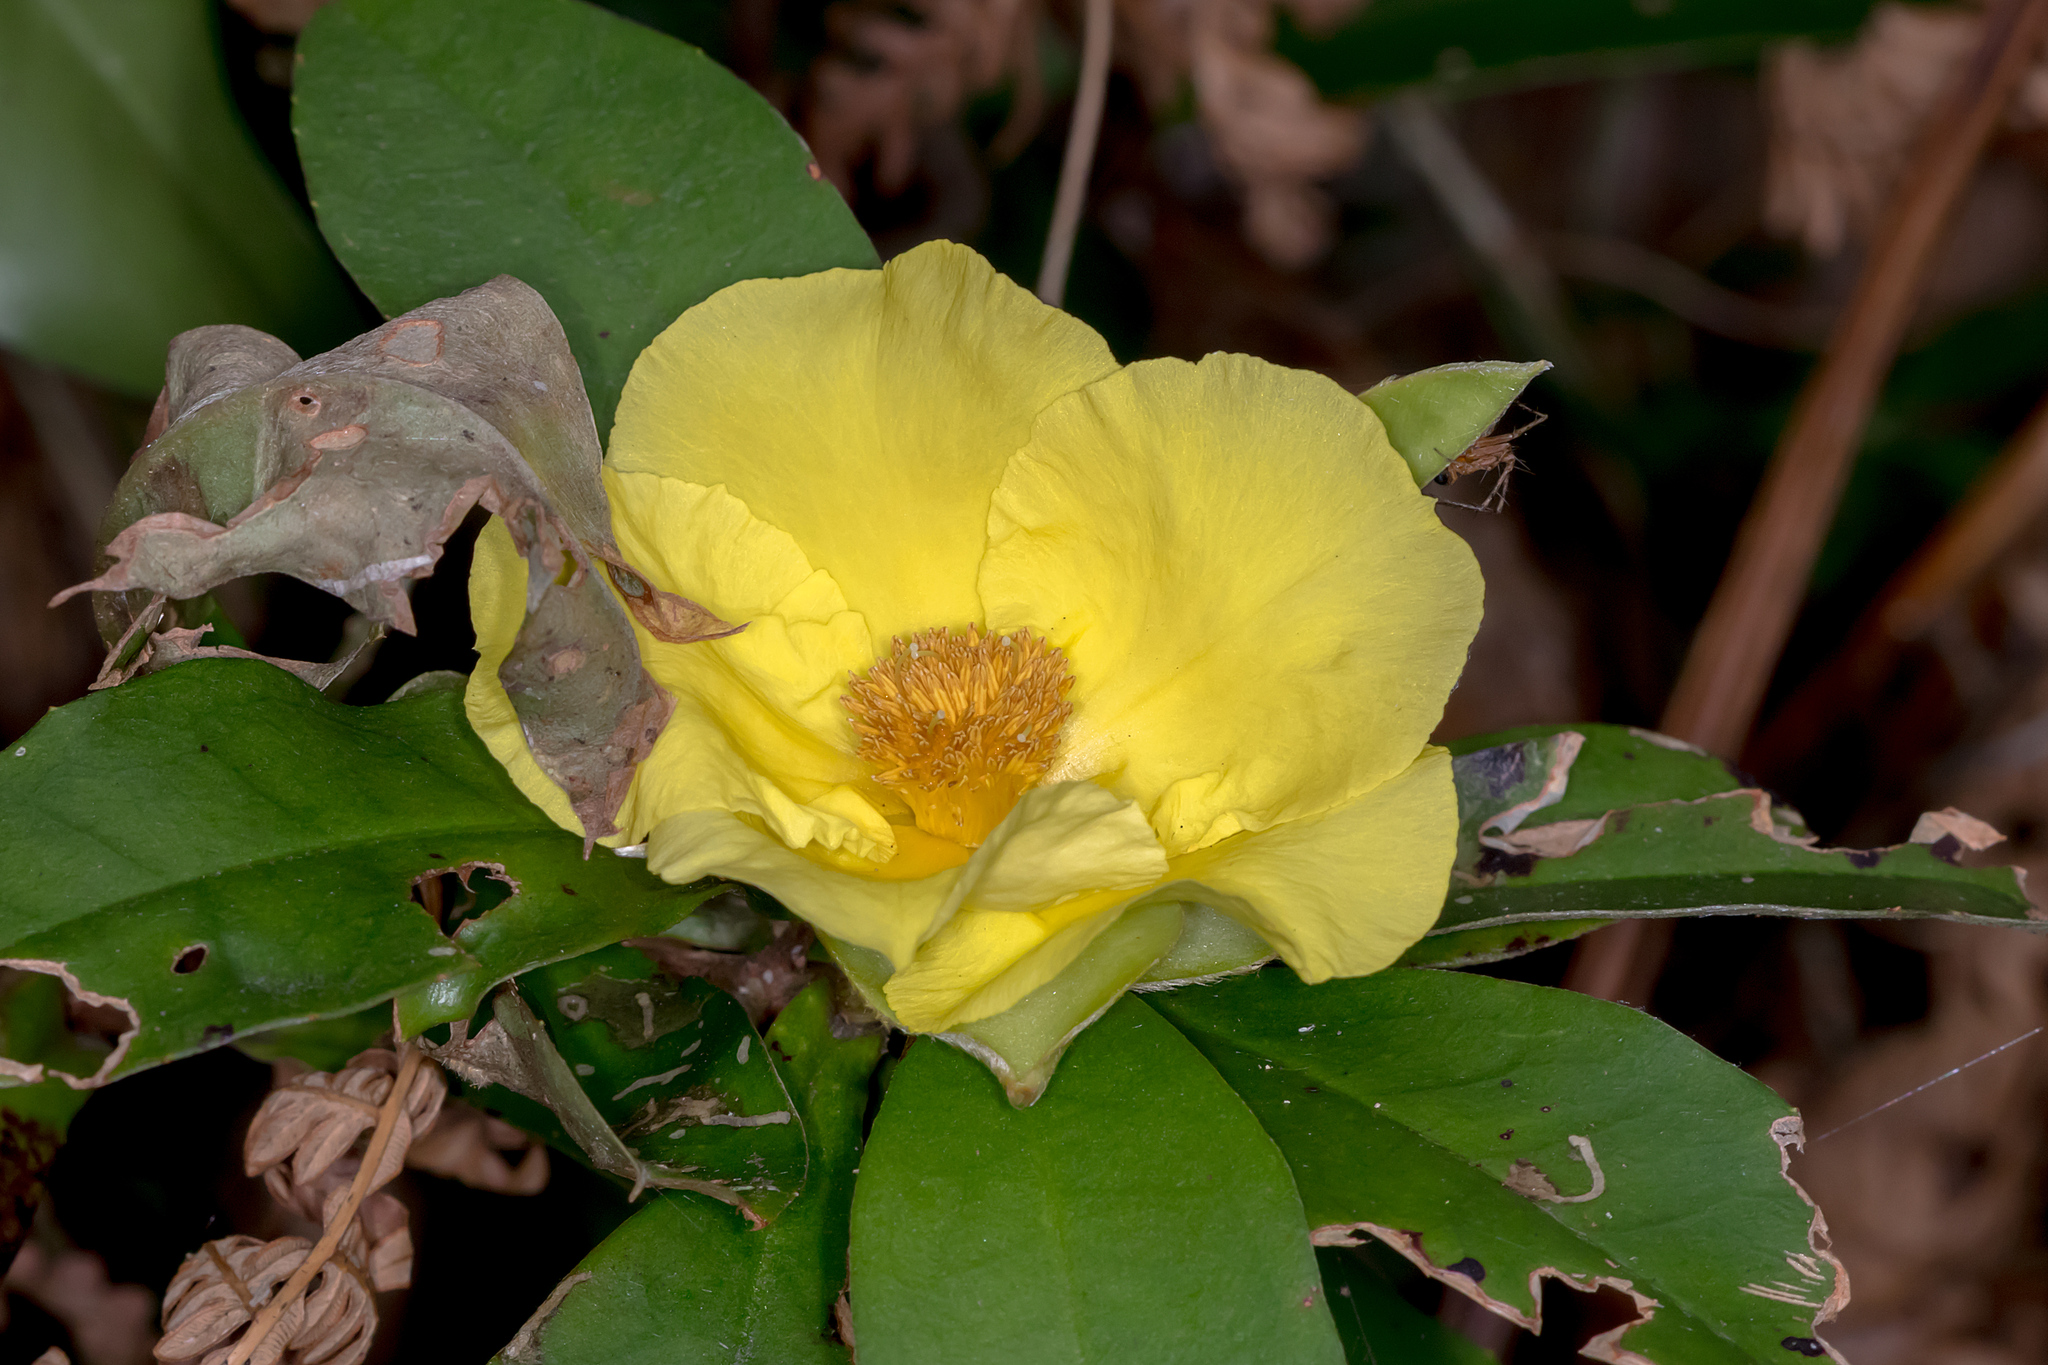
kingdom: Plantae
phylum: Tracheophyta
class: Magnoliopsida
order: Dilleniales
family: Dilleniaceae
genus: Hibbertia
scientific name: Hibbertia scandens
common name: Climbing guinea-flower
